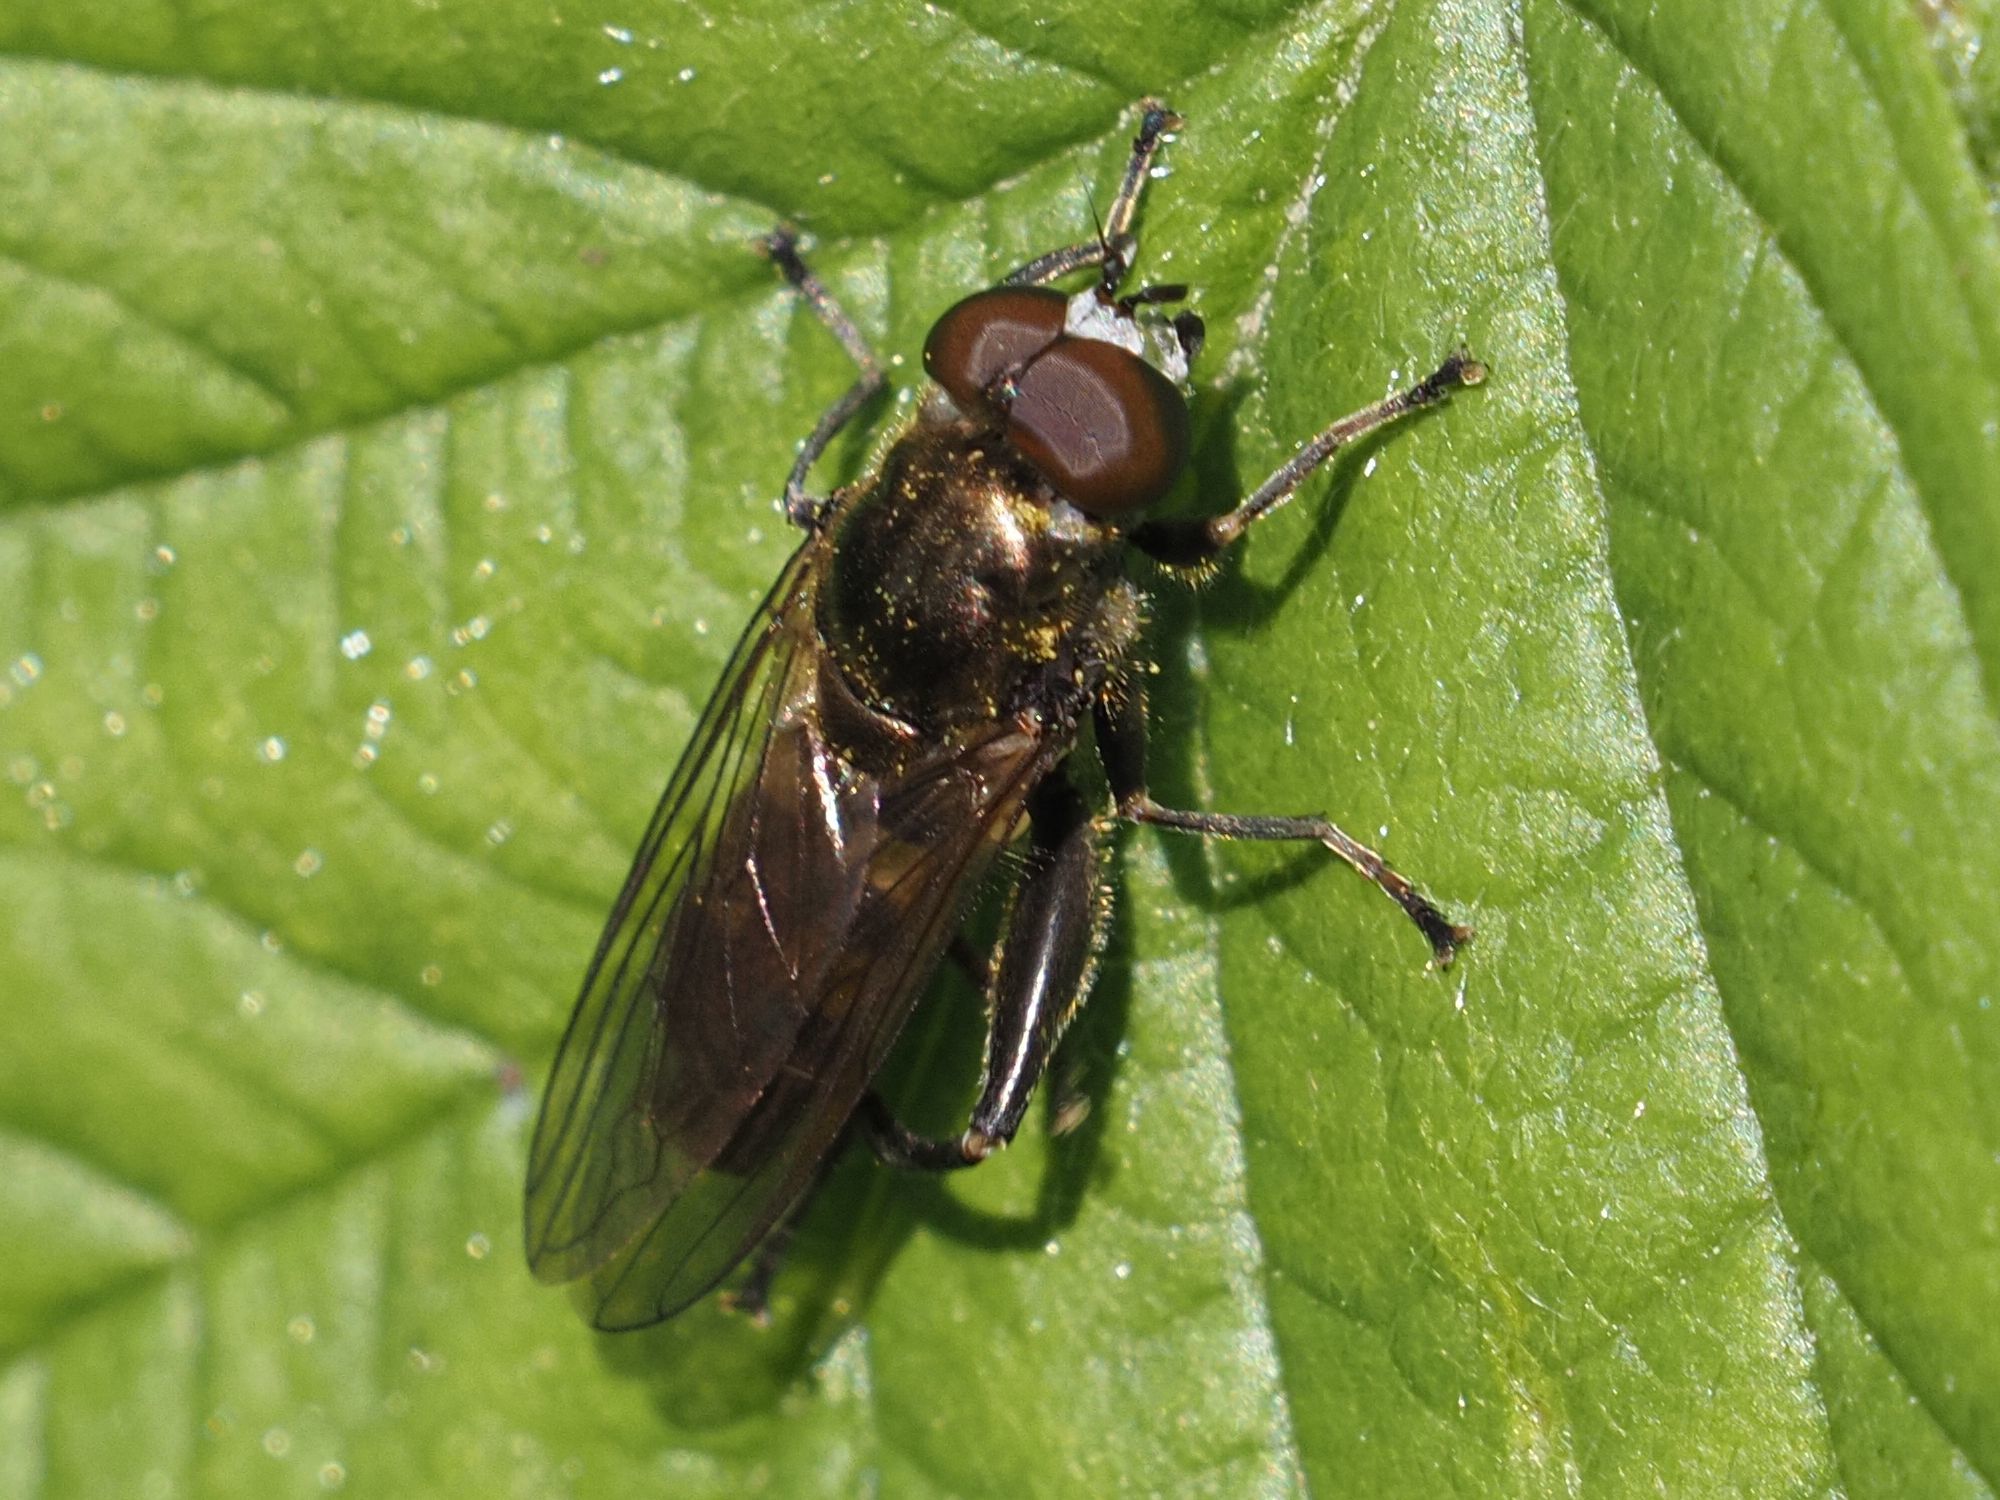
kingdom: Animalia
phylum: Arthropoda
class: Insecta
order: Diptera
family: Syrphidae
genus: Chalcosyrphus
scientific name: Chalcosyrphus nemorum
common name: Dusky-banded forest fly
